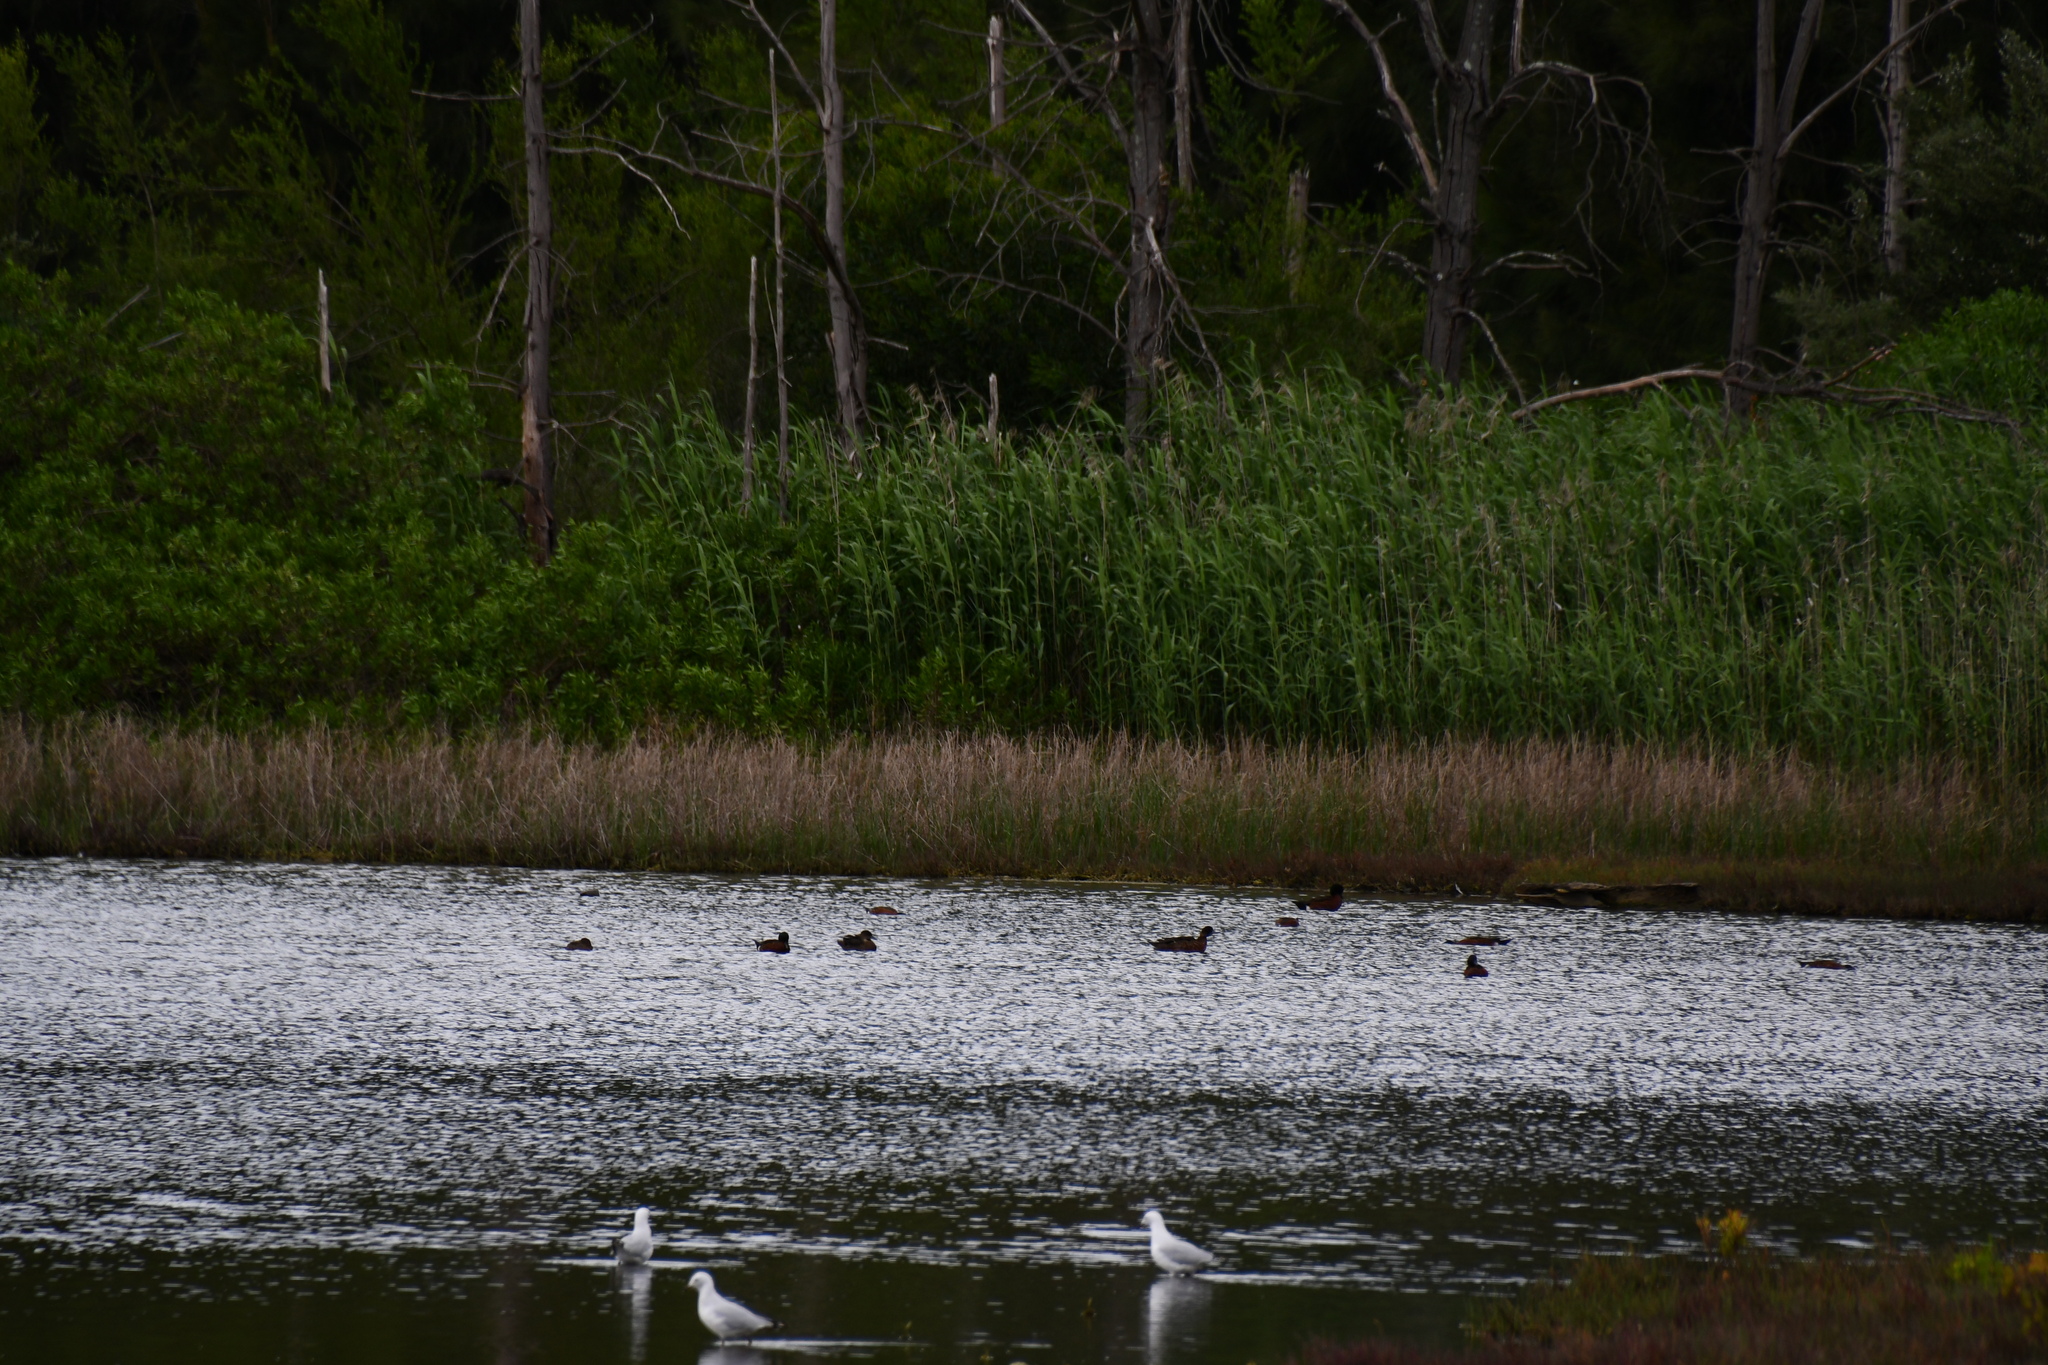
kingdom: Animalia
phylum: Chordata
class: Aves
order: Anseriformes
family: Anatidae
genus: Anas
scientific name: Anas castanea
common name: Chestnut teal
